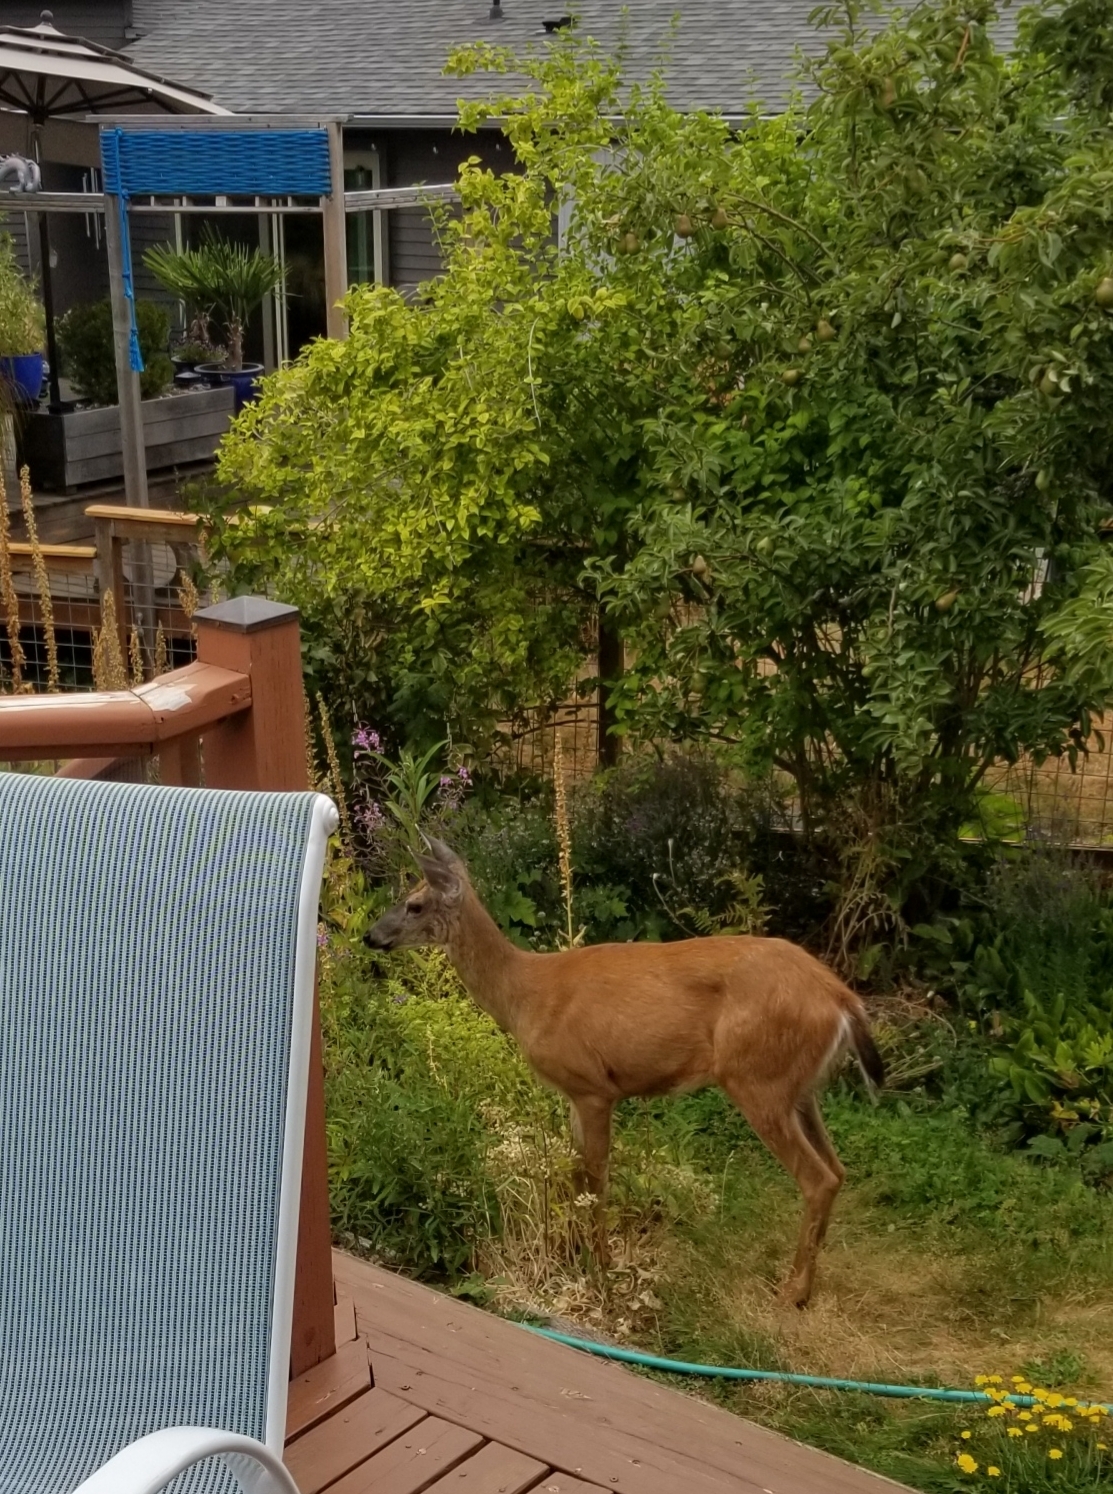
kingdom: Animalia
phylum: Chordata
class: Mammalia
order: Artiodactyla
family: Cervidae
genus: Odocoileus
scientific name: Odocoileus hemionus
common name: Mule deer
